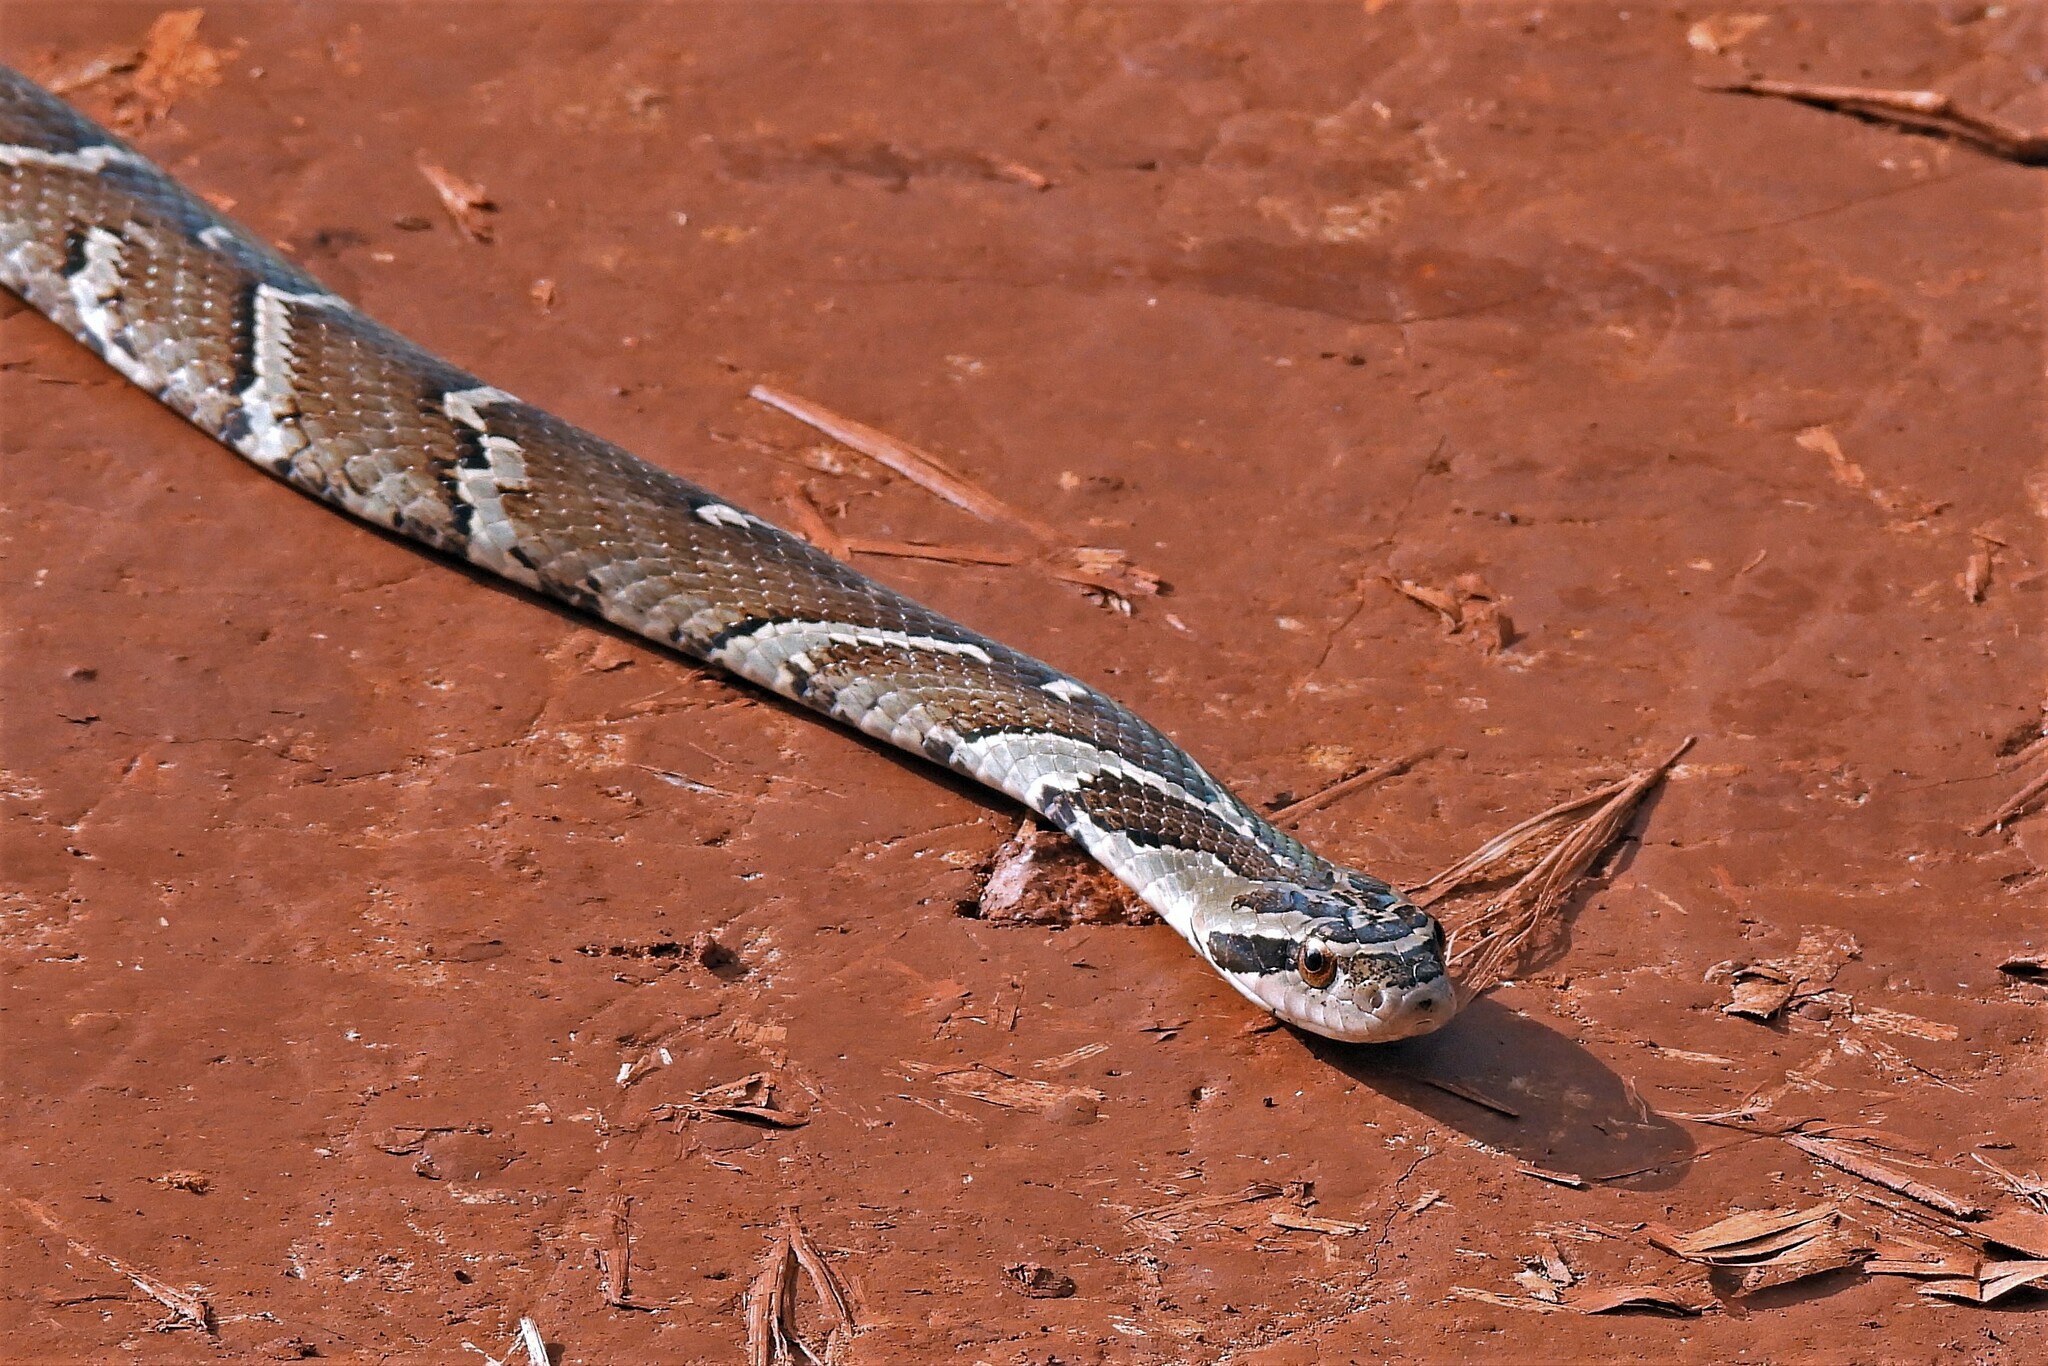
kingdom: Animalia
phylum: Chordata
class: Squamata
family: Colubridae
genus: Xenodon
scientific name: Xenodon neuwiedii
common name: Neuwied's false fer-de-lance
